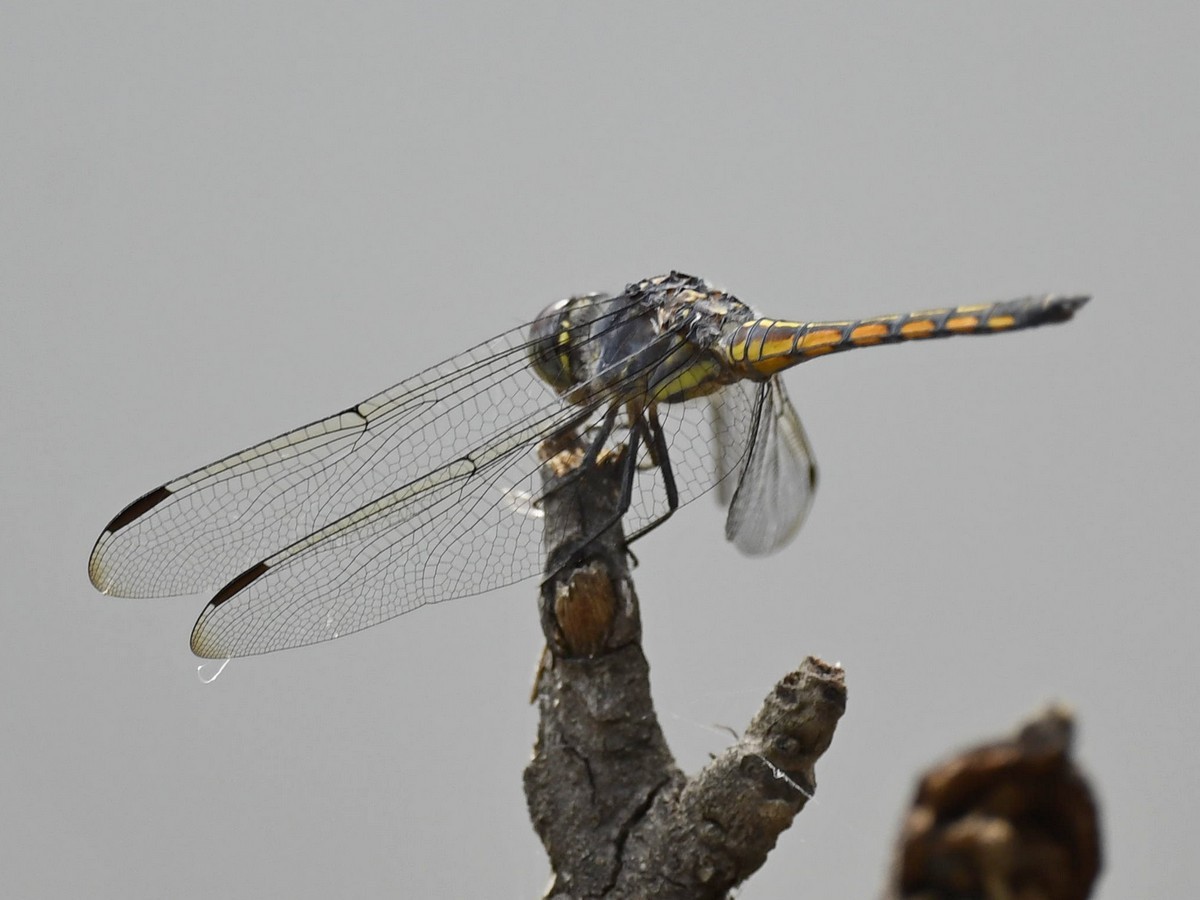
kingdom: Animalia
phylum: Arthropoda
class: Insecta
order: Odonata
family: Libellulidae
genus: Potamarcha
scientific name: Potamarcha congener
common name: Blue chaser
